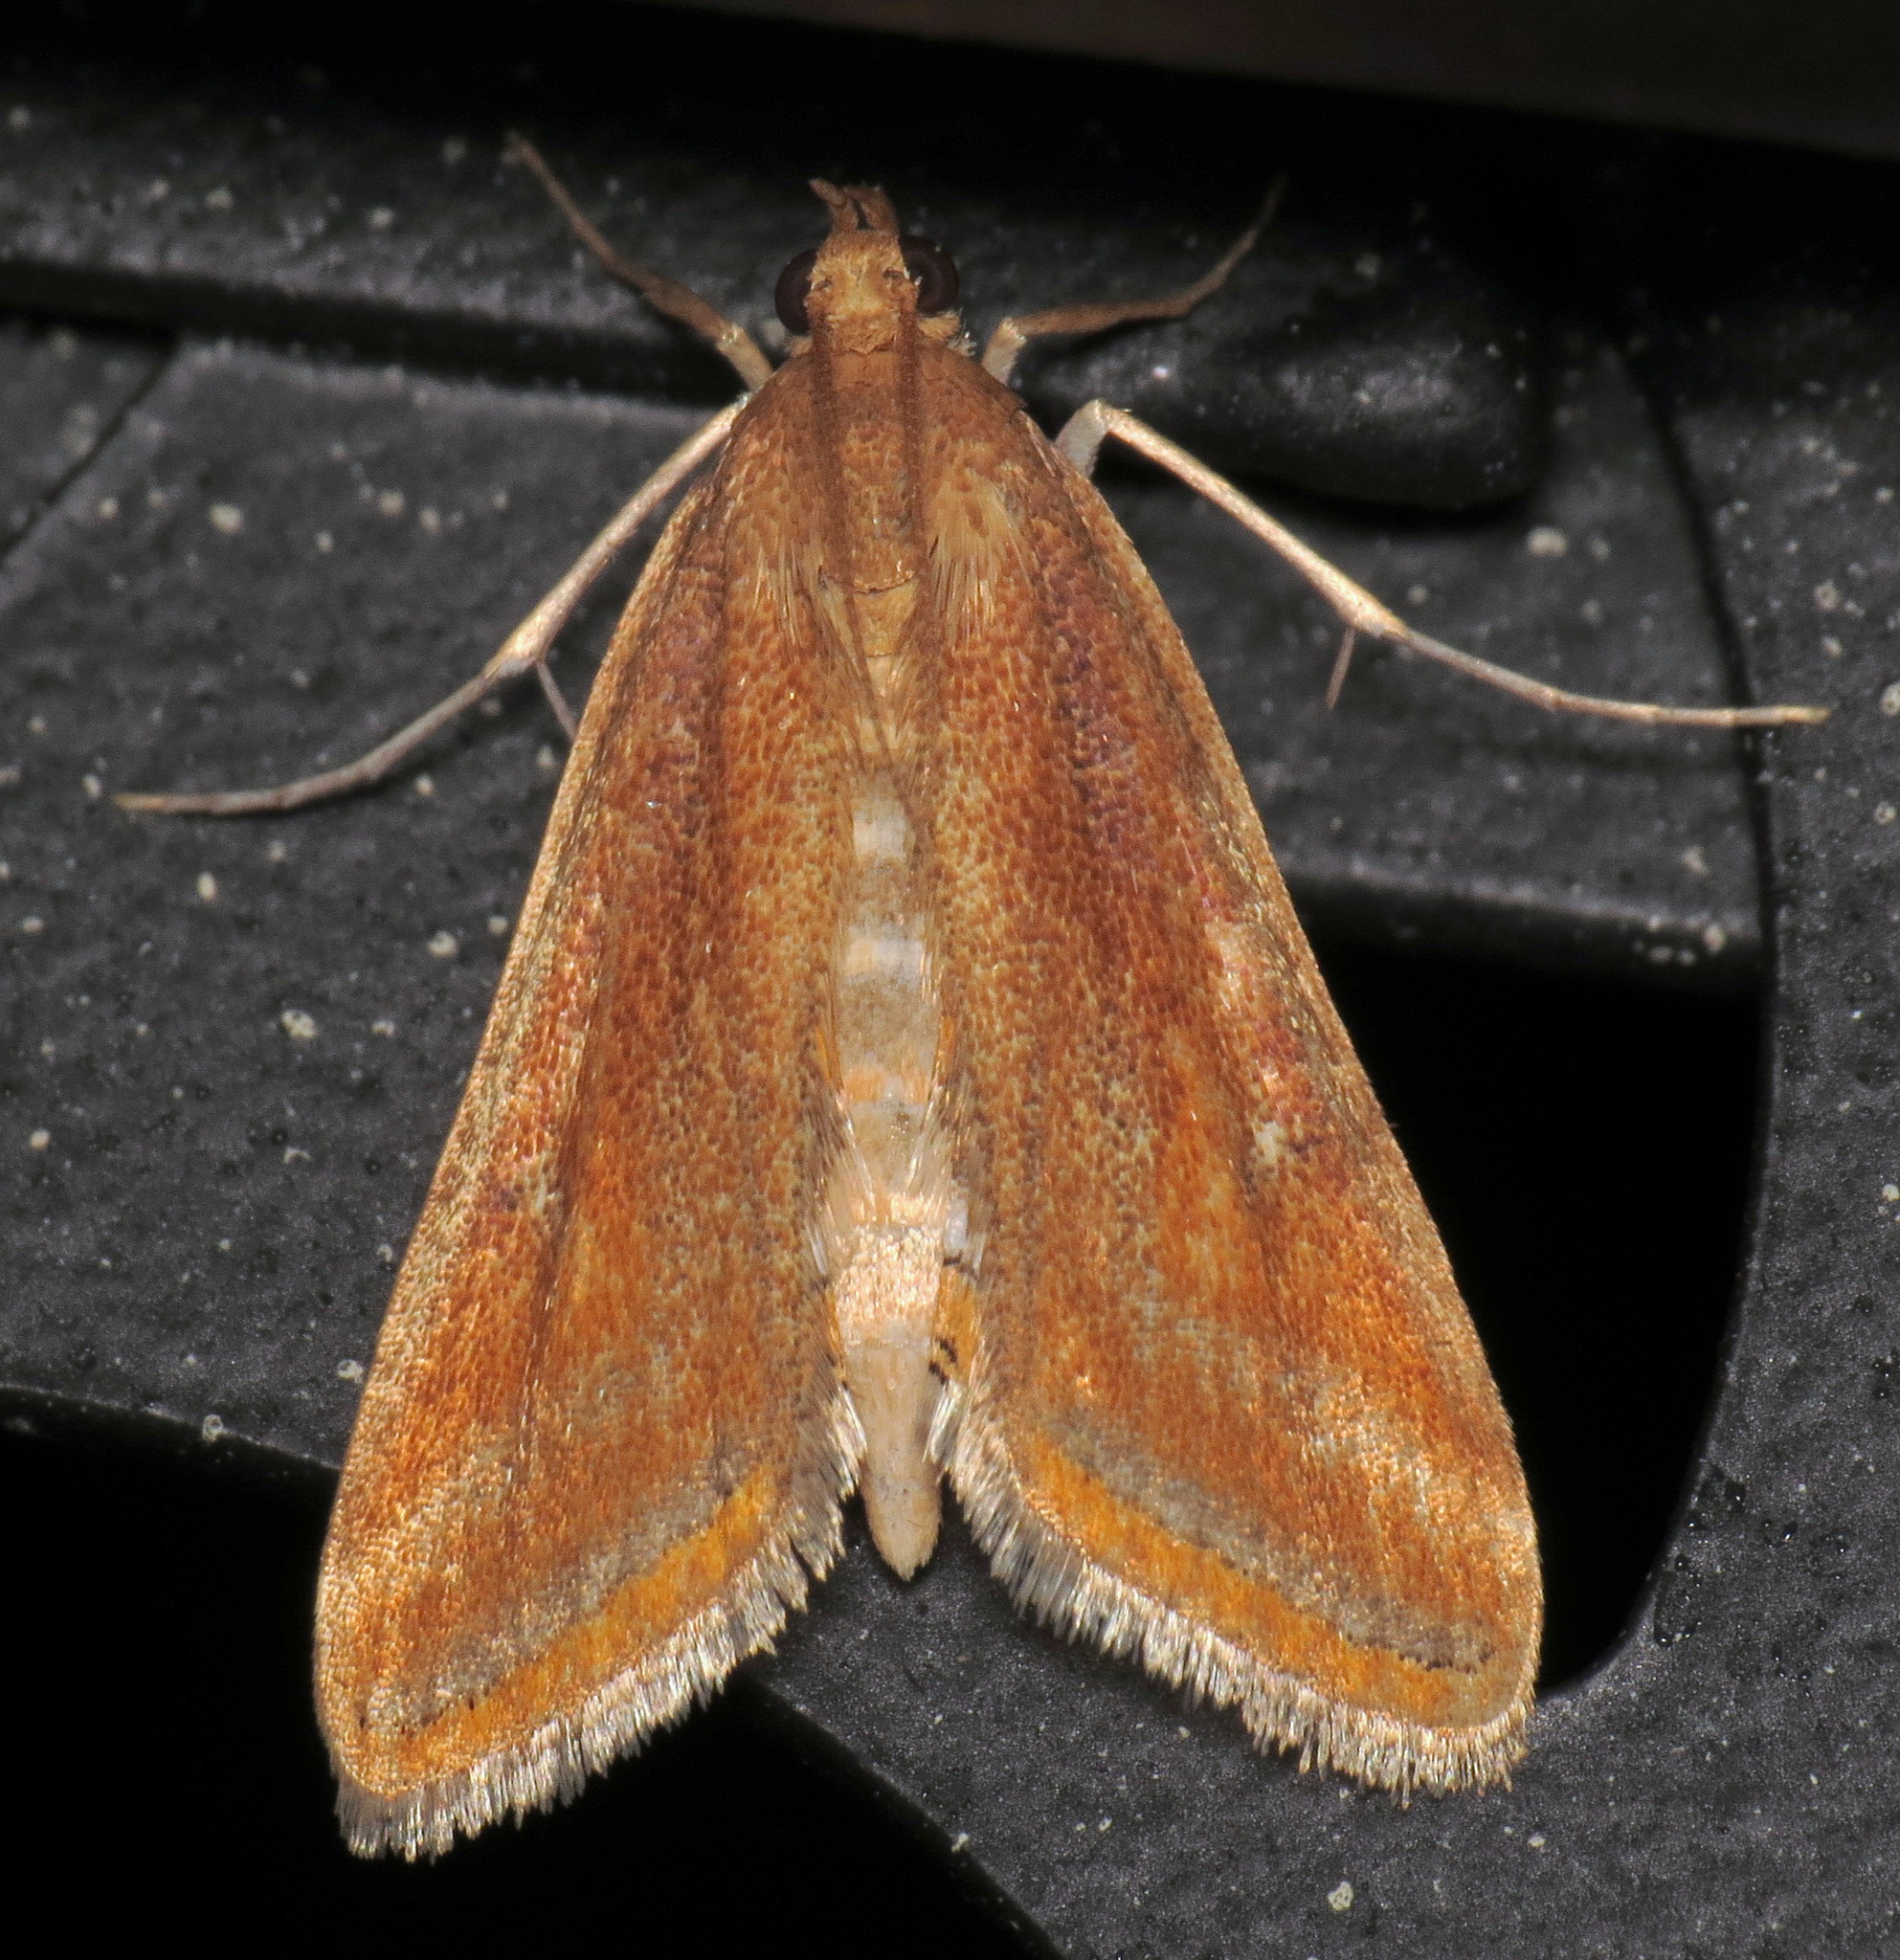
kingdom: Animalia
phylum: Arthropoda
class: Insecta
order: Lepidoptera
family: Crambidae
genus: Parapoynx
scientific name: Parapoynx seminealis
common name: Floating-heart waterlily leafcutter
